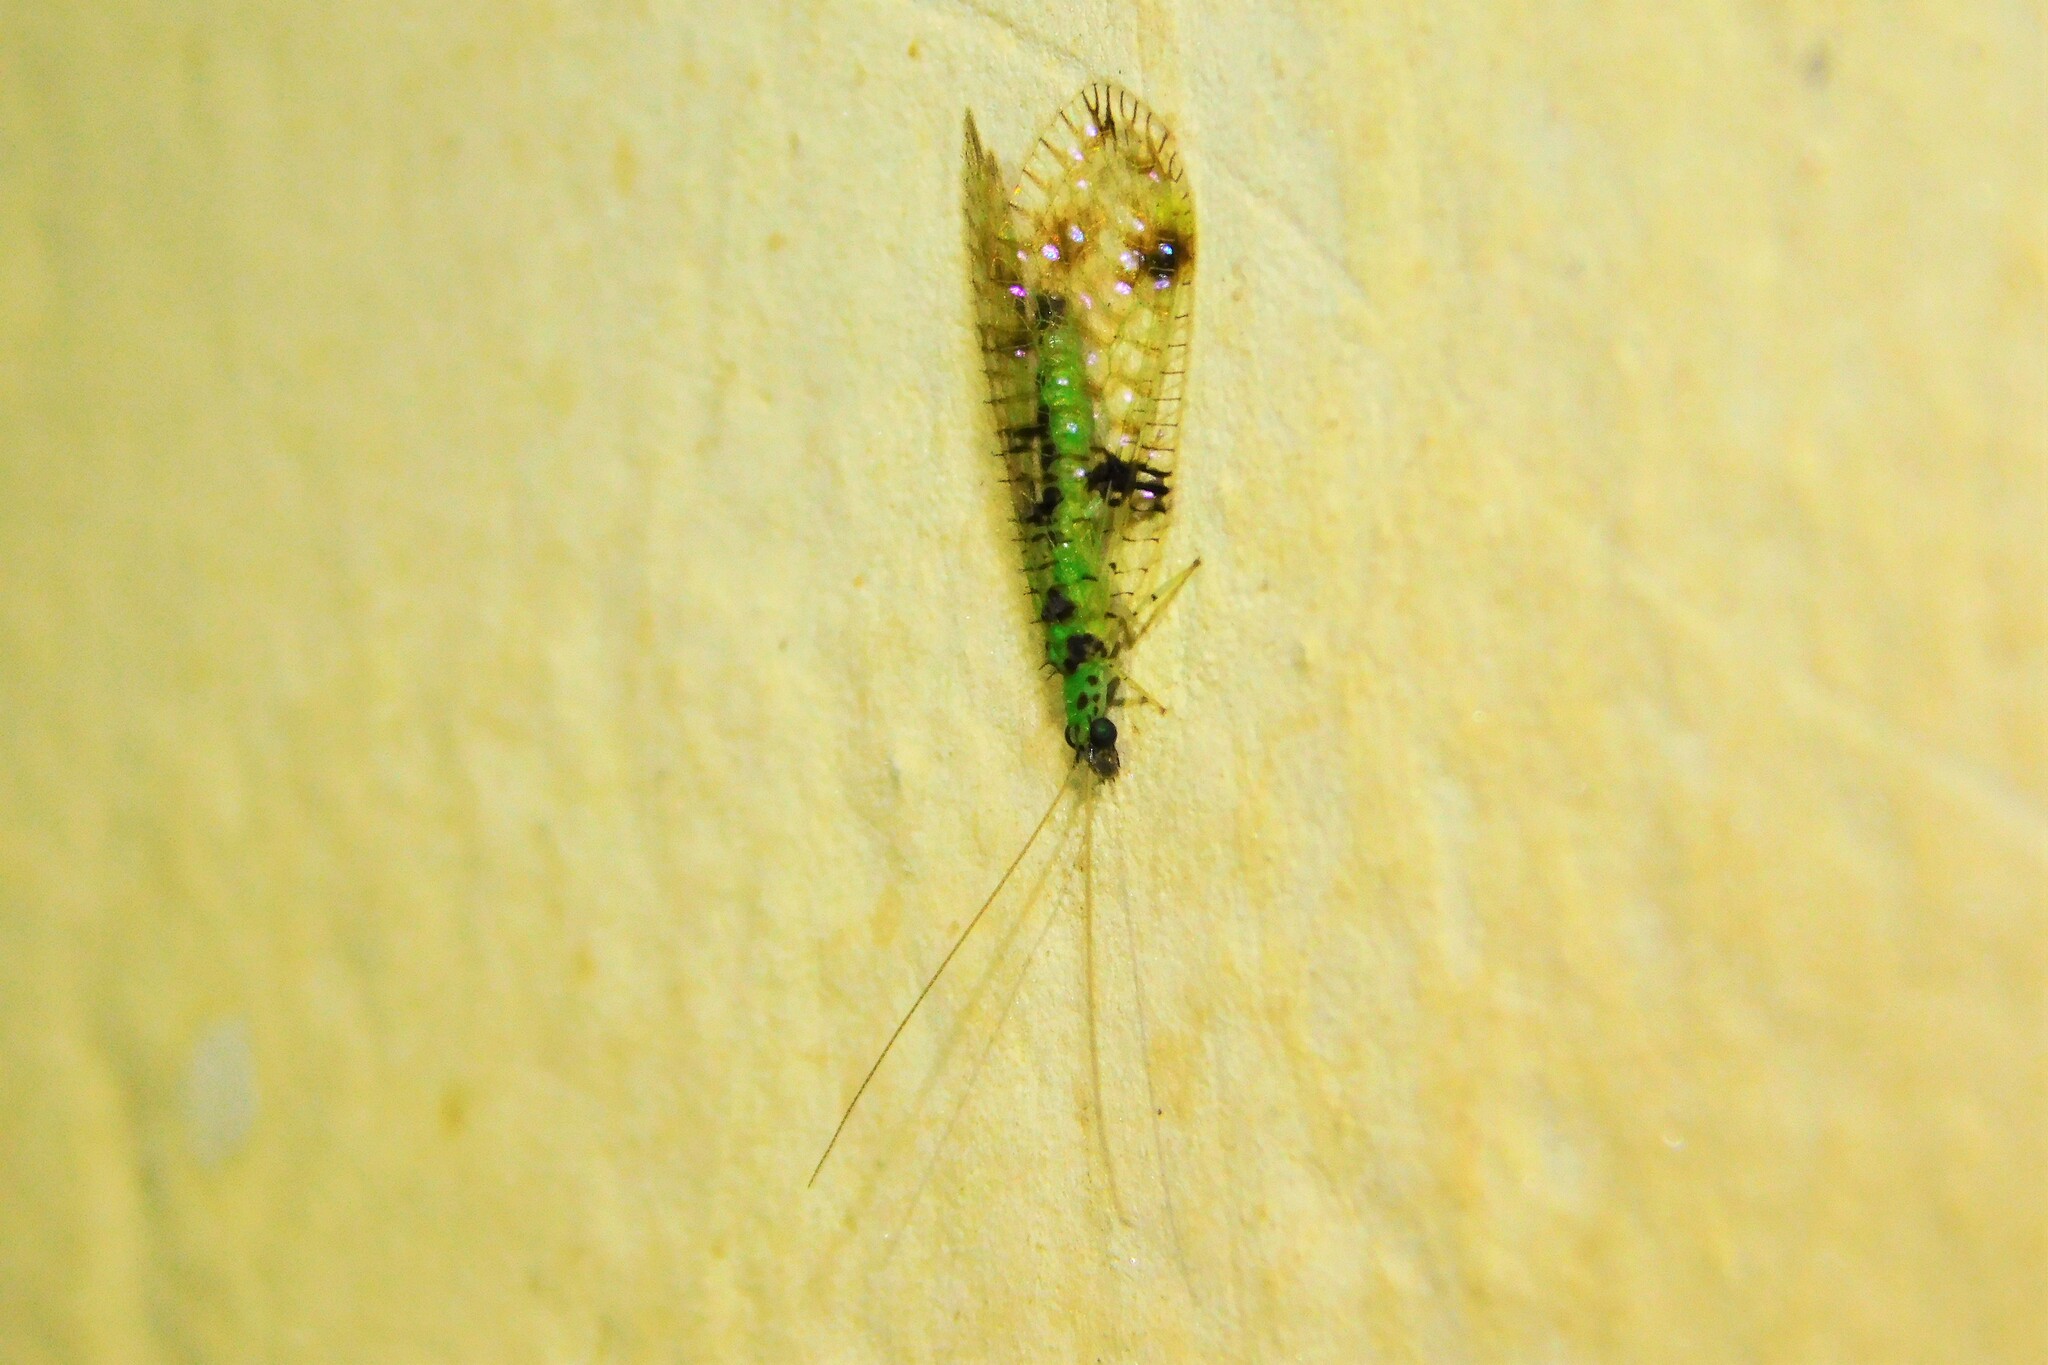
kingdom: Animalia
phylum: Arthropoda
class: Insecta
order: Neuroptera
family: Chrysopidae
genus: Glenochrysa
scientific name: Glenochrysa principissa
